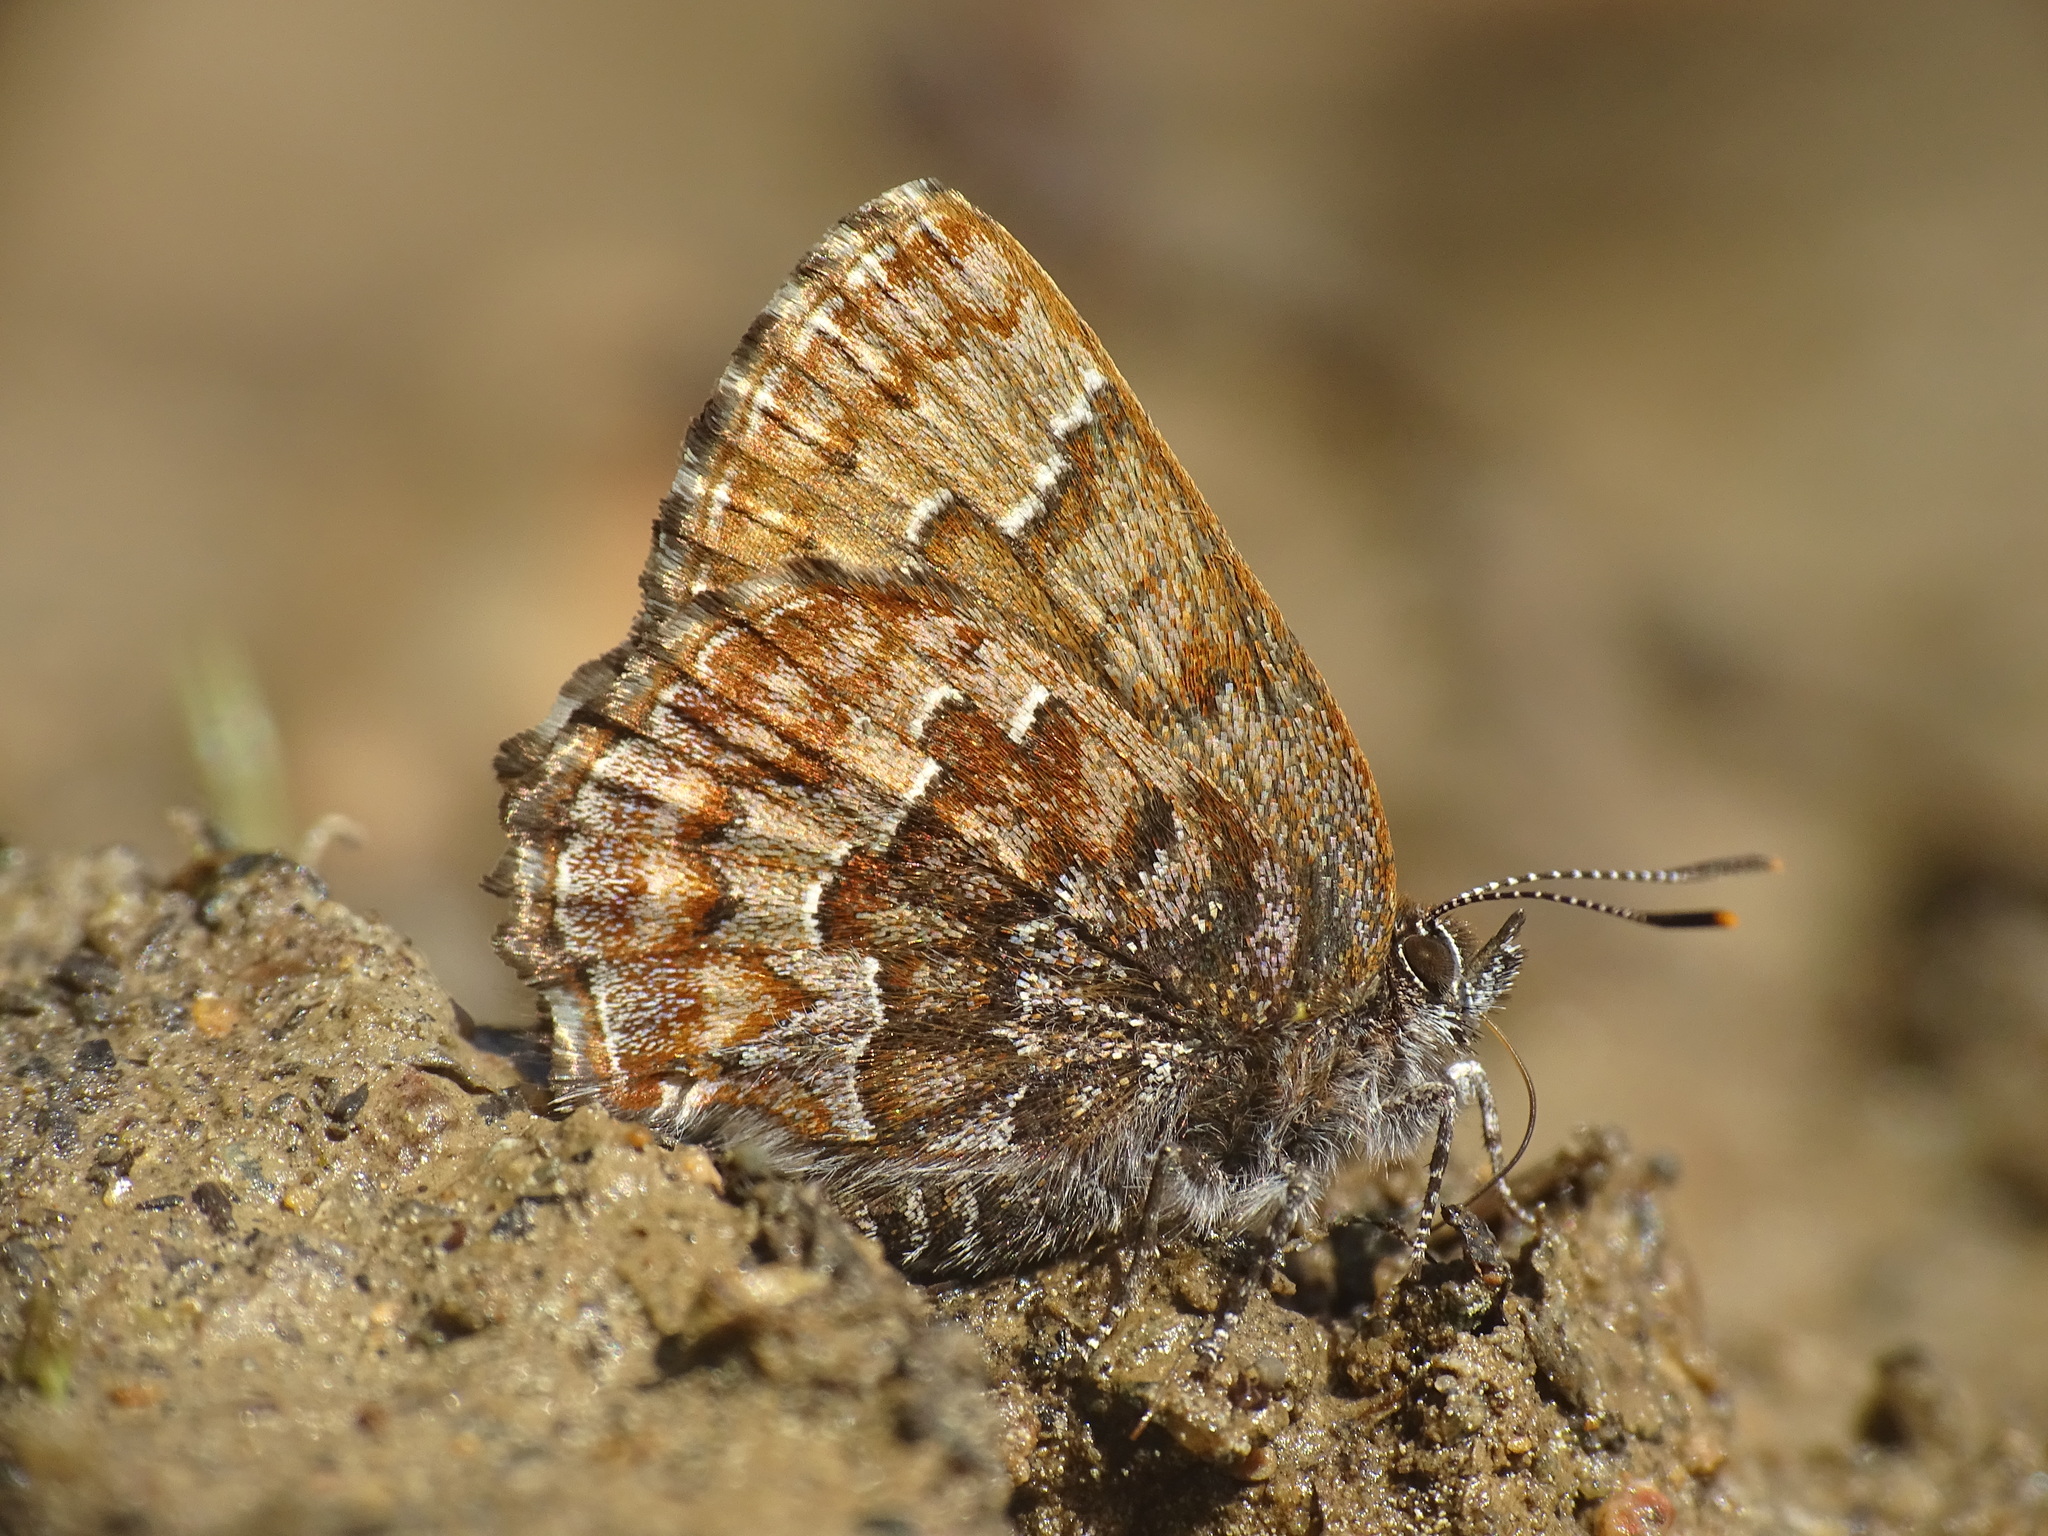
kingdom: Animalia
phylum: Arthropoda
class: Insecta
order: Lepidoptera
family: Lycaenidae
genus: Incisalia
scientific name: Incisalia niphon
